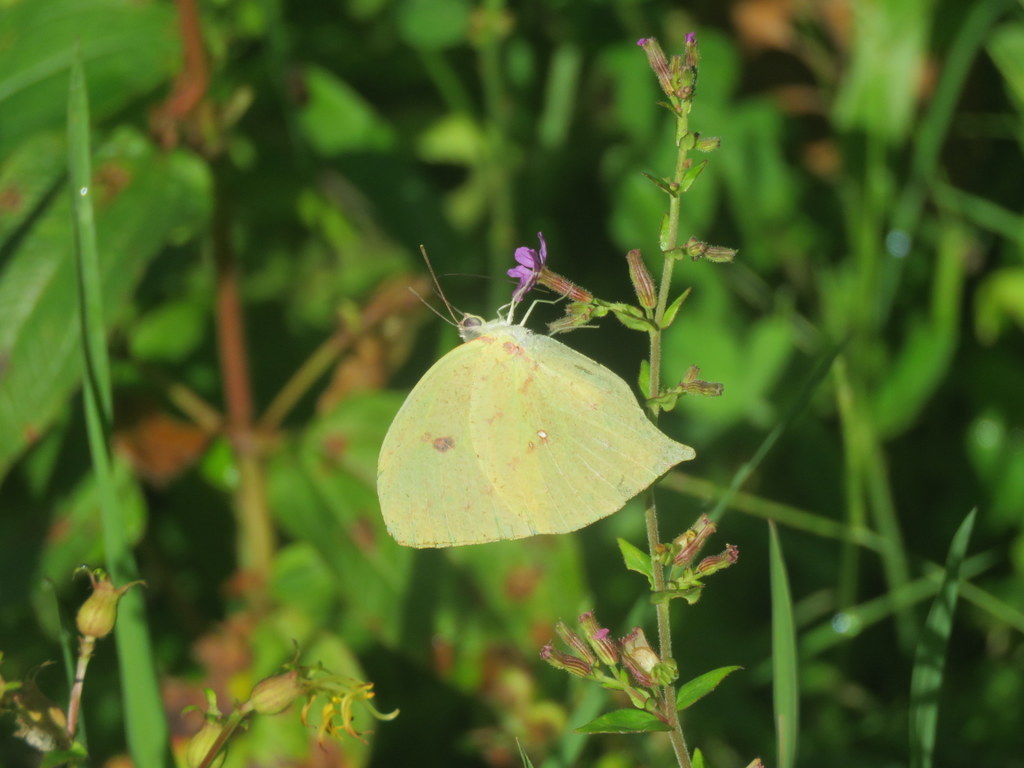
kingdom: Animalia
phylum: Arthropoda
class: Insecta
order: Lepidoptera
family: Pieridae
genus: Phoebis
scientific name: Phoebis neocypris
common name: Tailed sulphur
